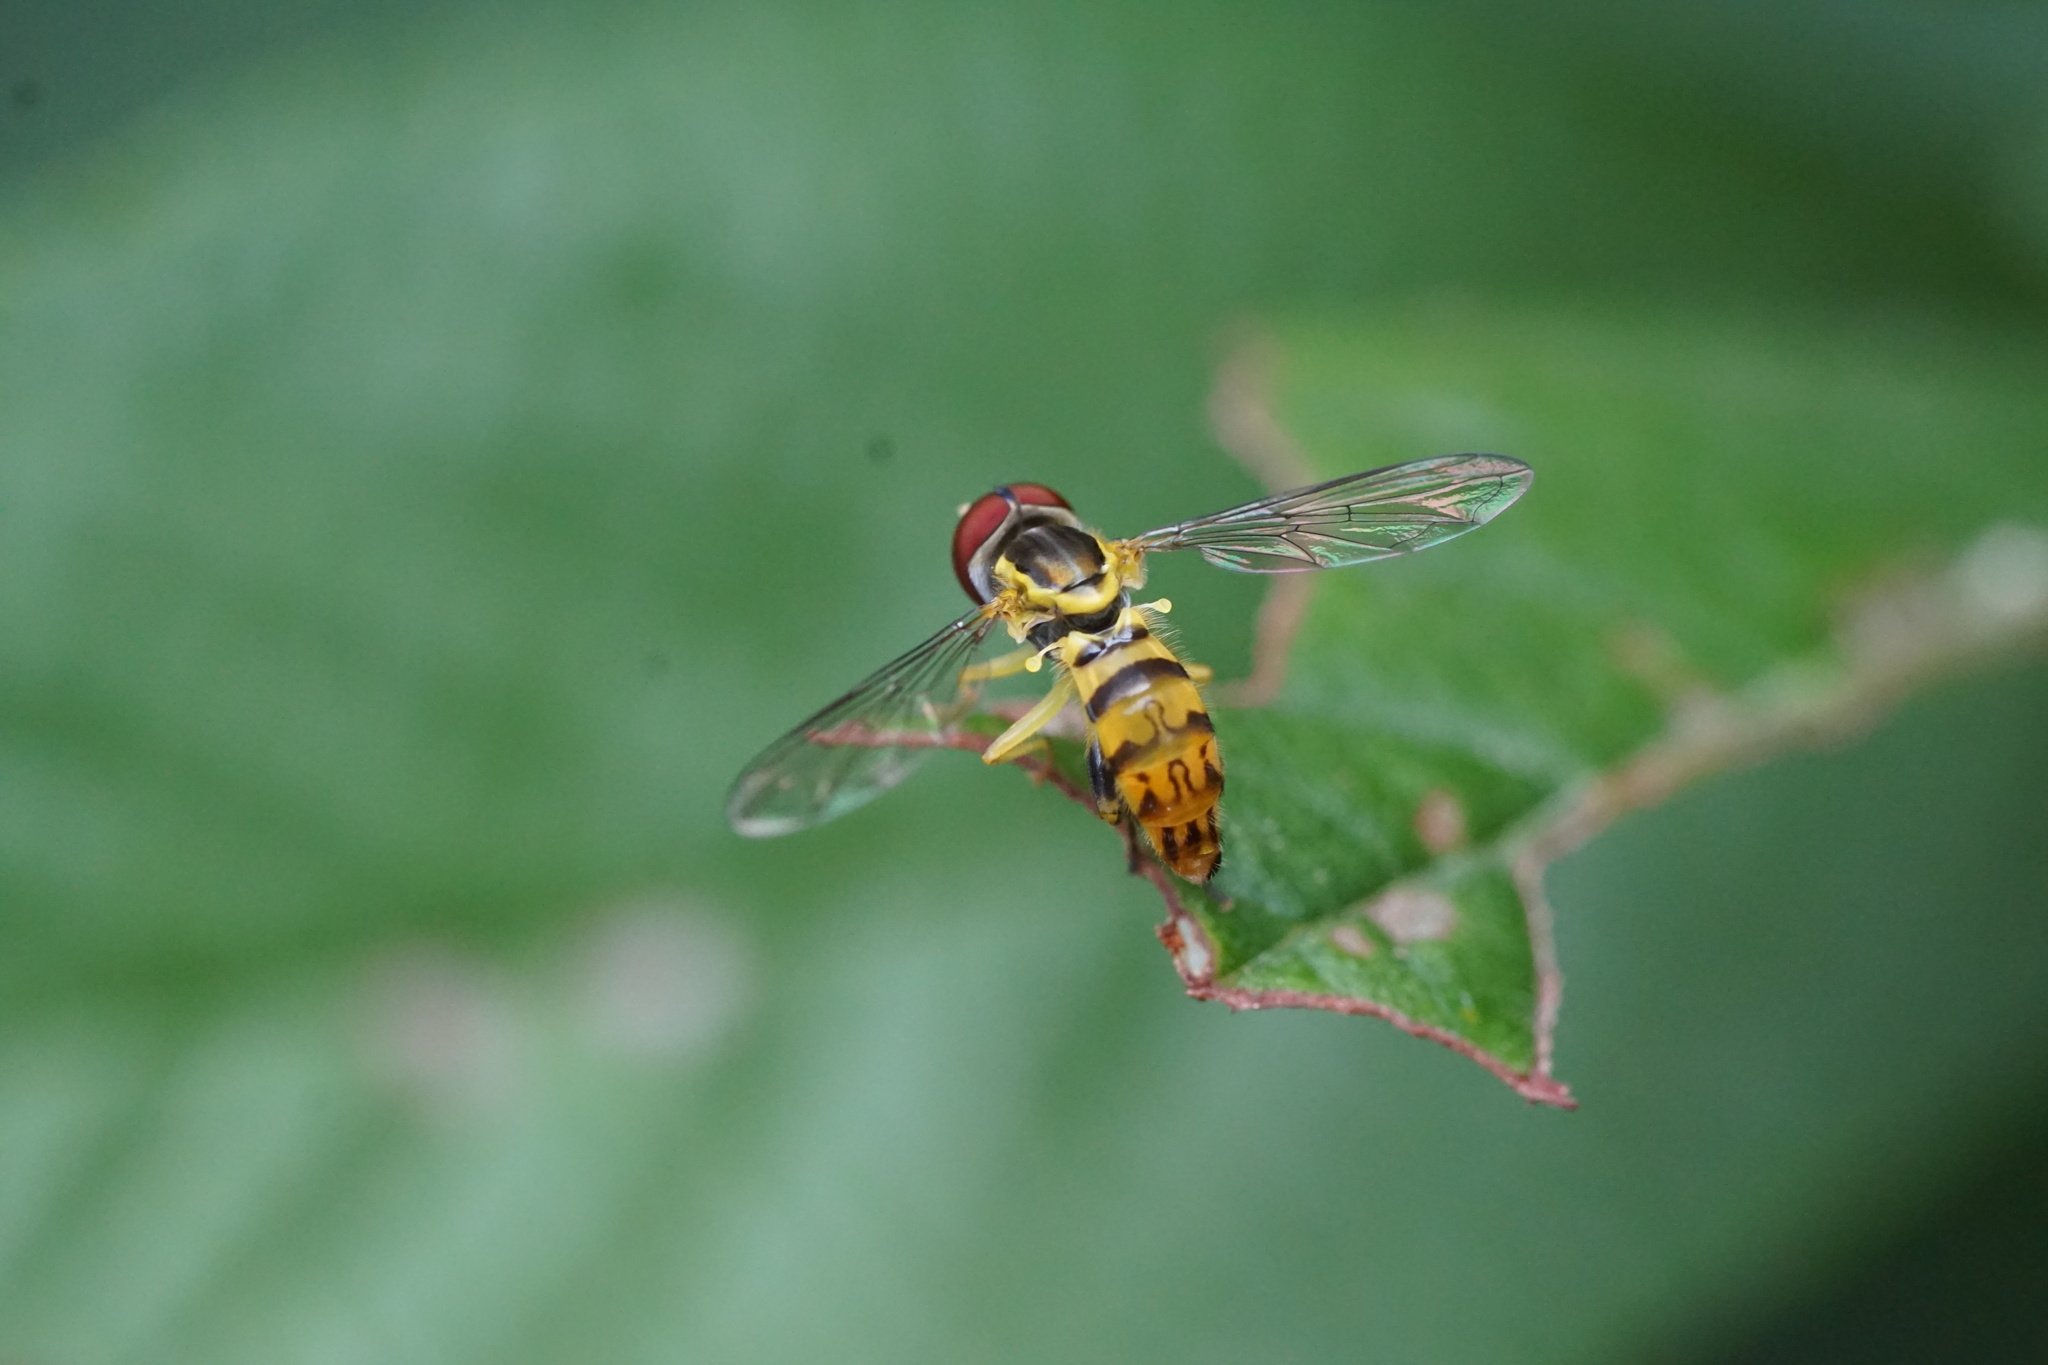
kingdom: Animalia
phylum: Arthropoda
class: Insecta
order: Diptera
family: Syrphidae
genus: Toxomerus
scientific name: Toxomerus geminatus
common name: Eastern calligrapher
